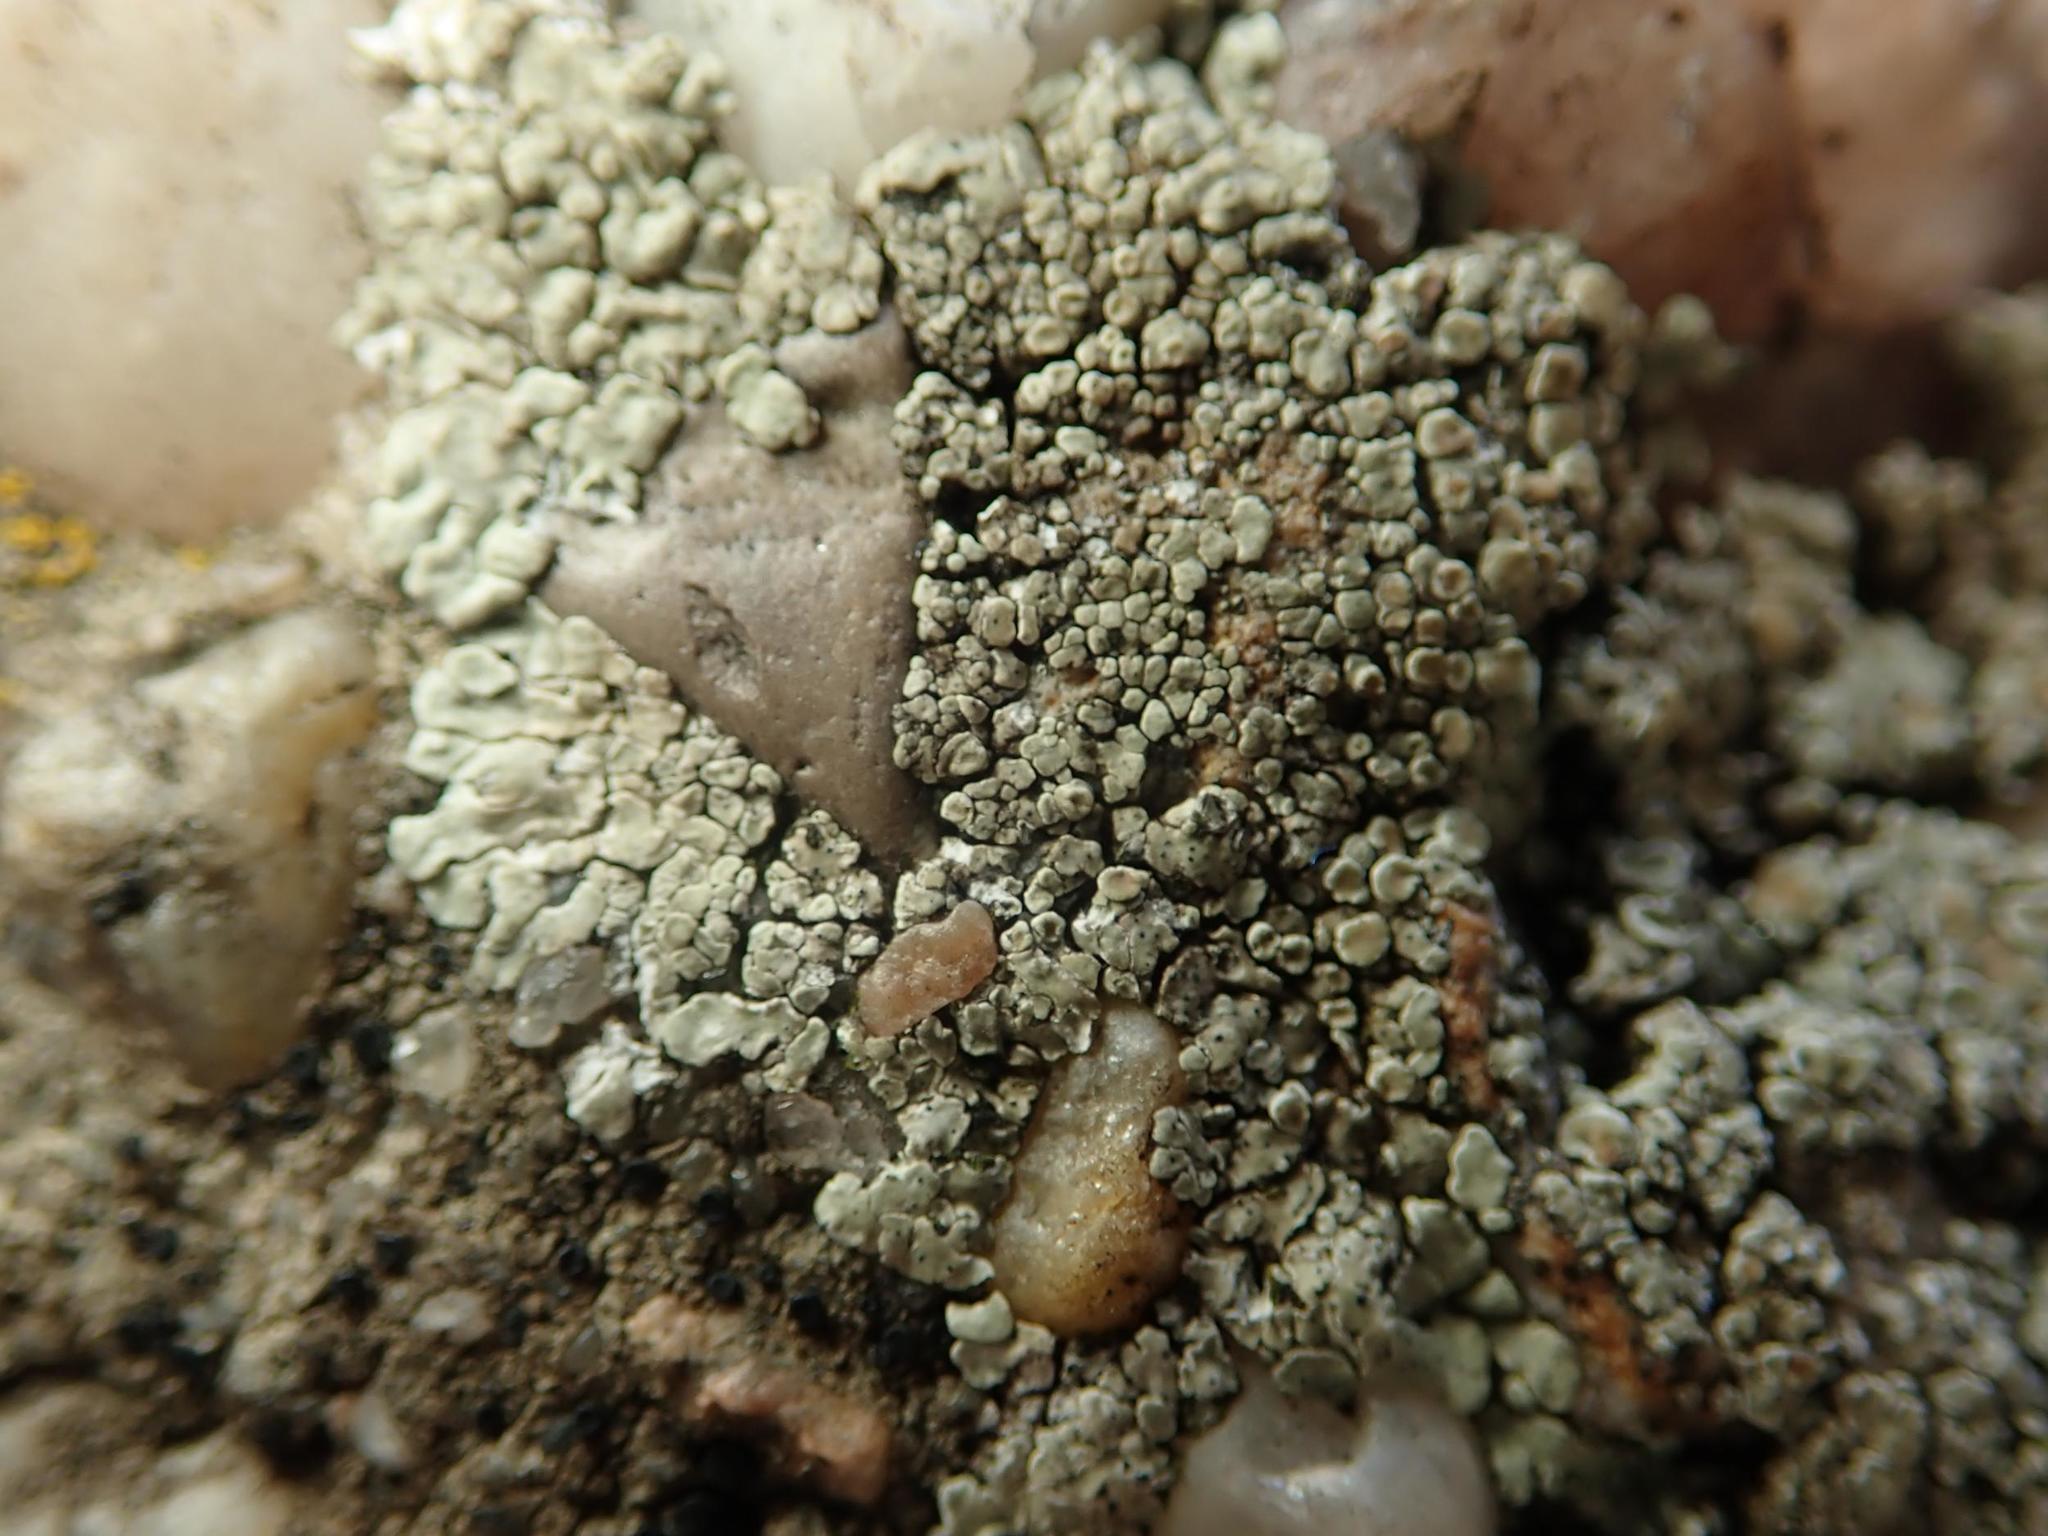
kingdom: Fungi
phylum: Ascomycota
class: Lecanoromycetes
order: Lecanorales
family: Lecanoraceae
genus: Protoparmeliopsis
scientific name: Protoparmeliopsis muralis
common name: Stonewall rim lichen
